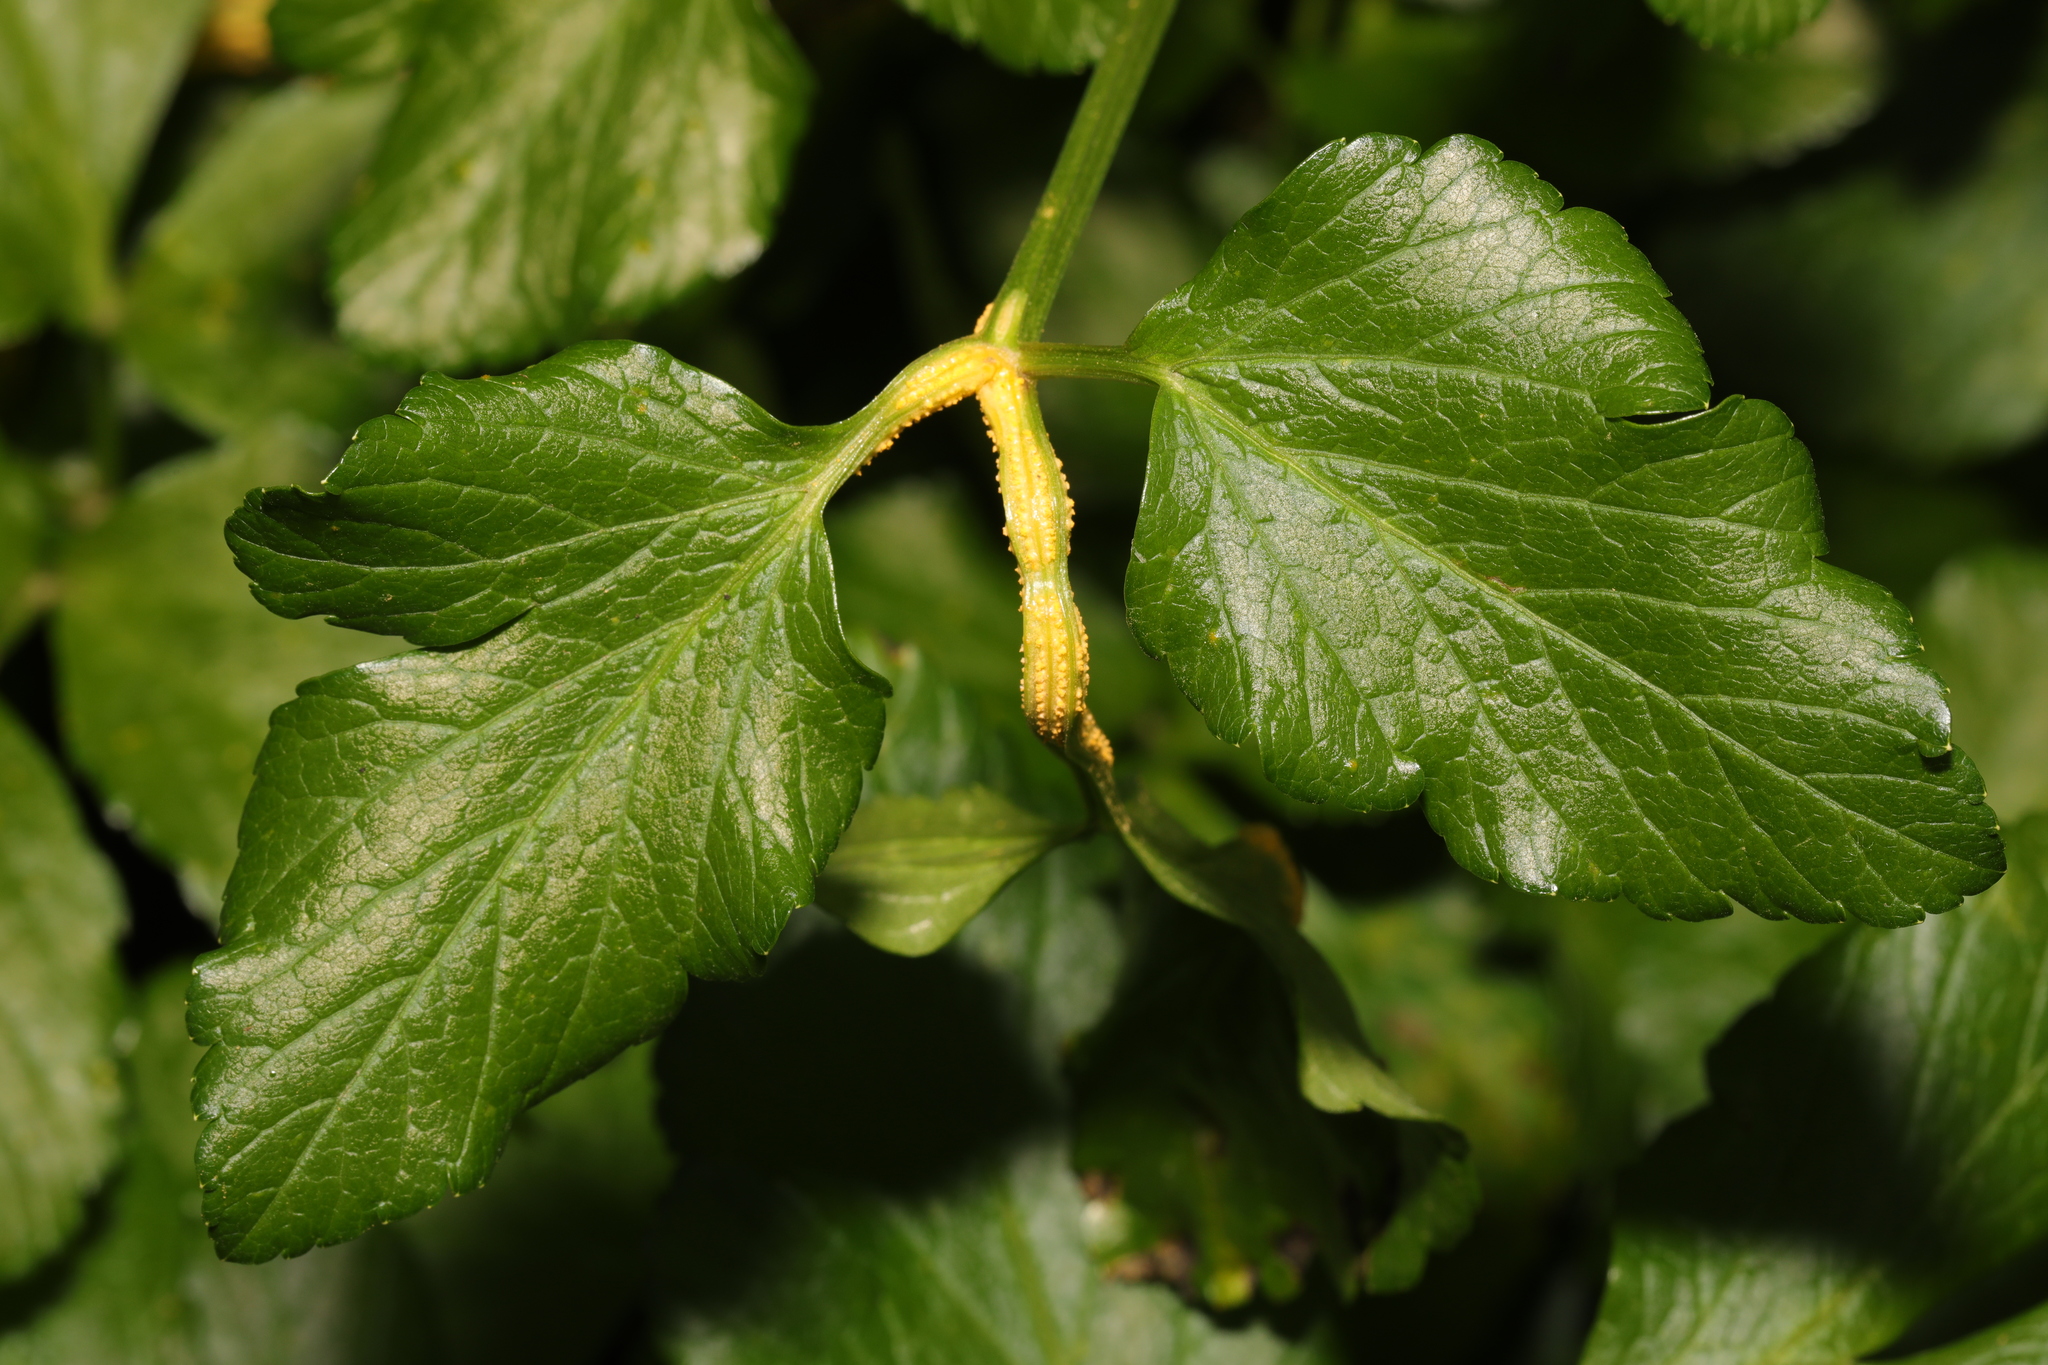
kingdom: Fungi
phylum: Basidiomycota
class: Pucciniomycetes
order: Pucciniales
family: Pucciniaceae
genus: Puccinia
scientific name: Puccinia smyrnii
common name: Alexanders rust
